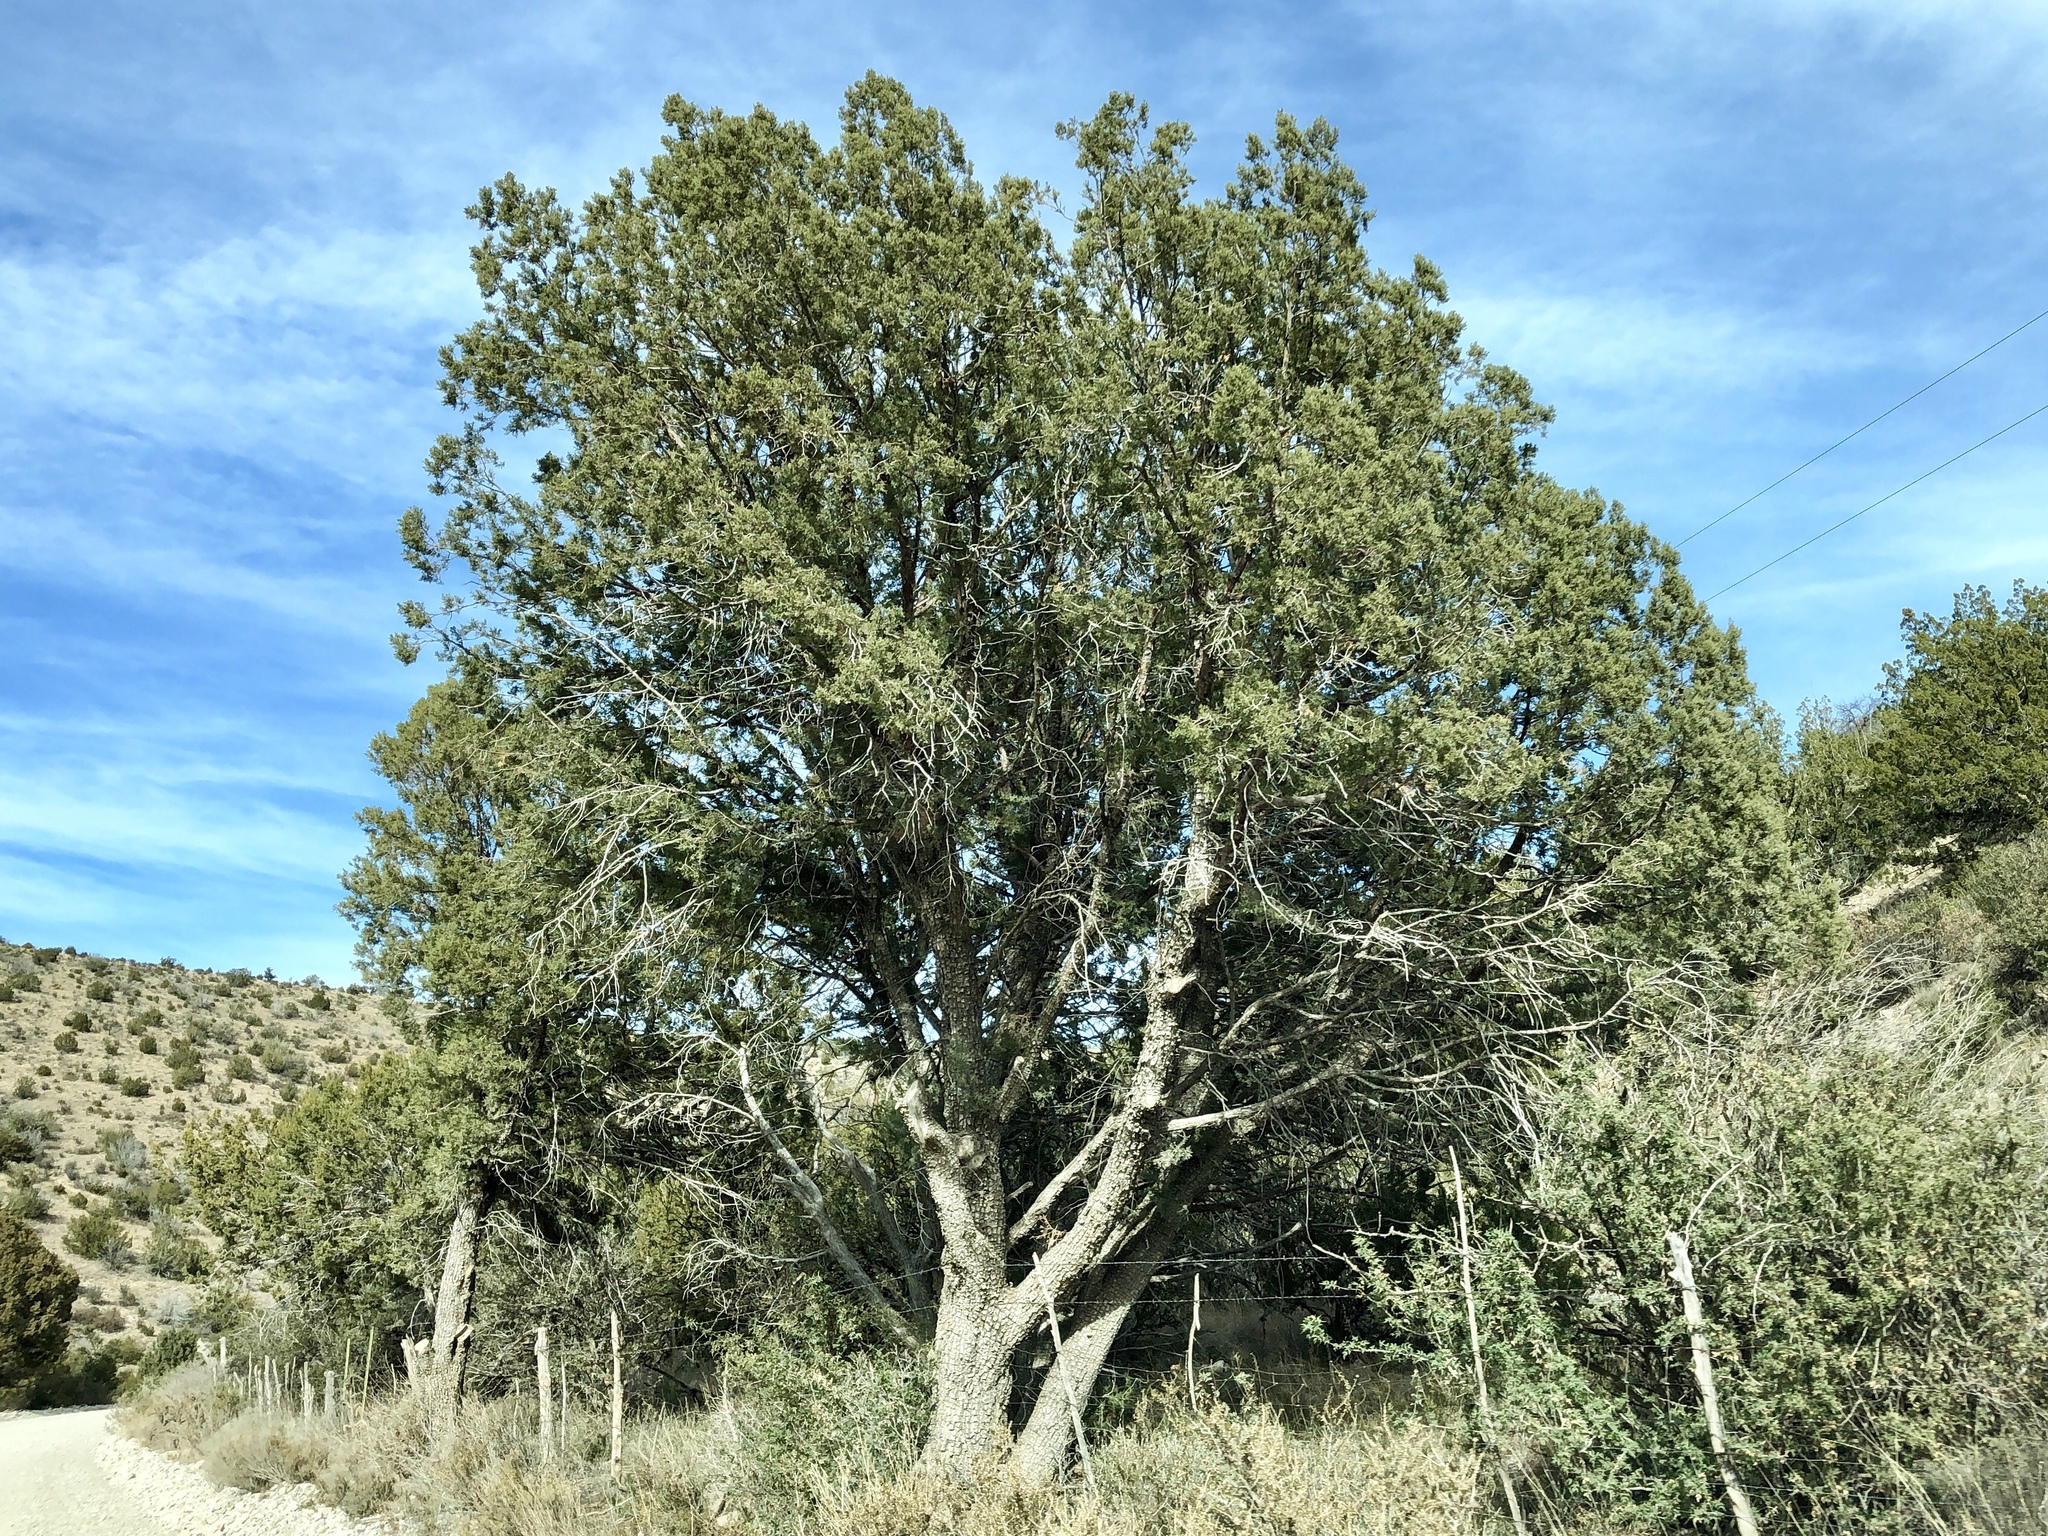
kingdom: Plantae
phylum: Tracheophyta
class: Pinopsida
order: Pinales
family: Cupressaceae
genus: Juniperus
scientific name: Juniperus deppeana
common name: Alligator juniper
